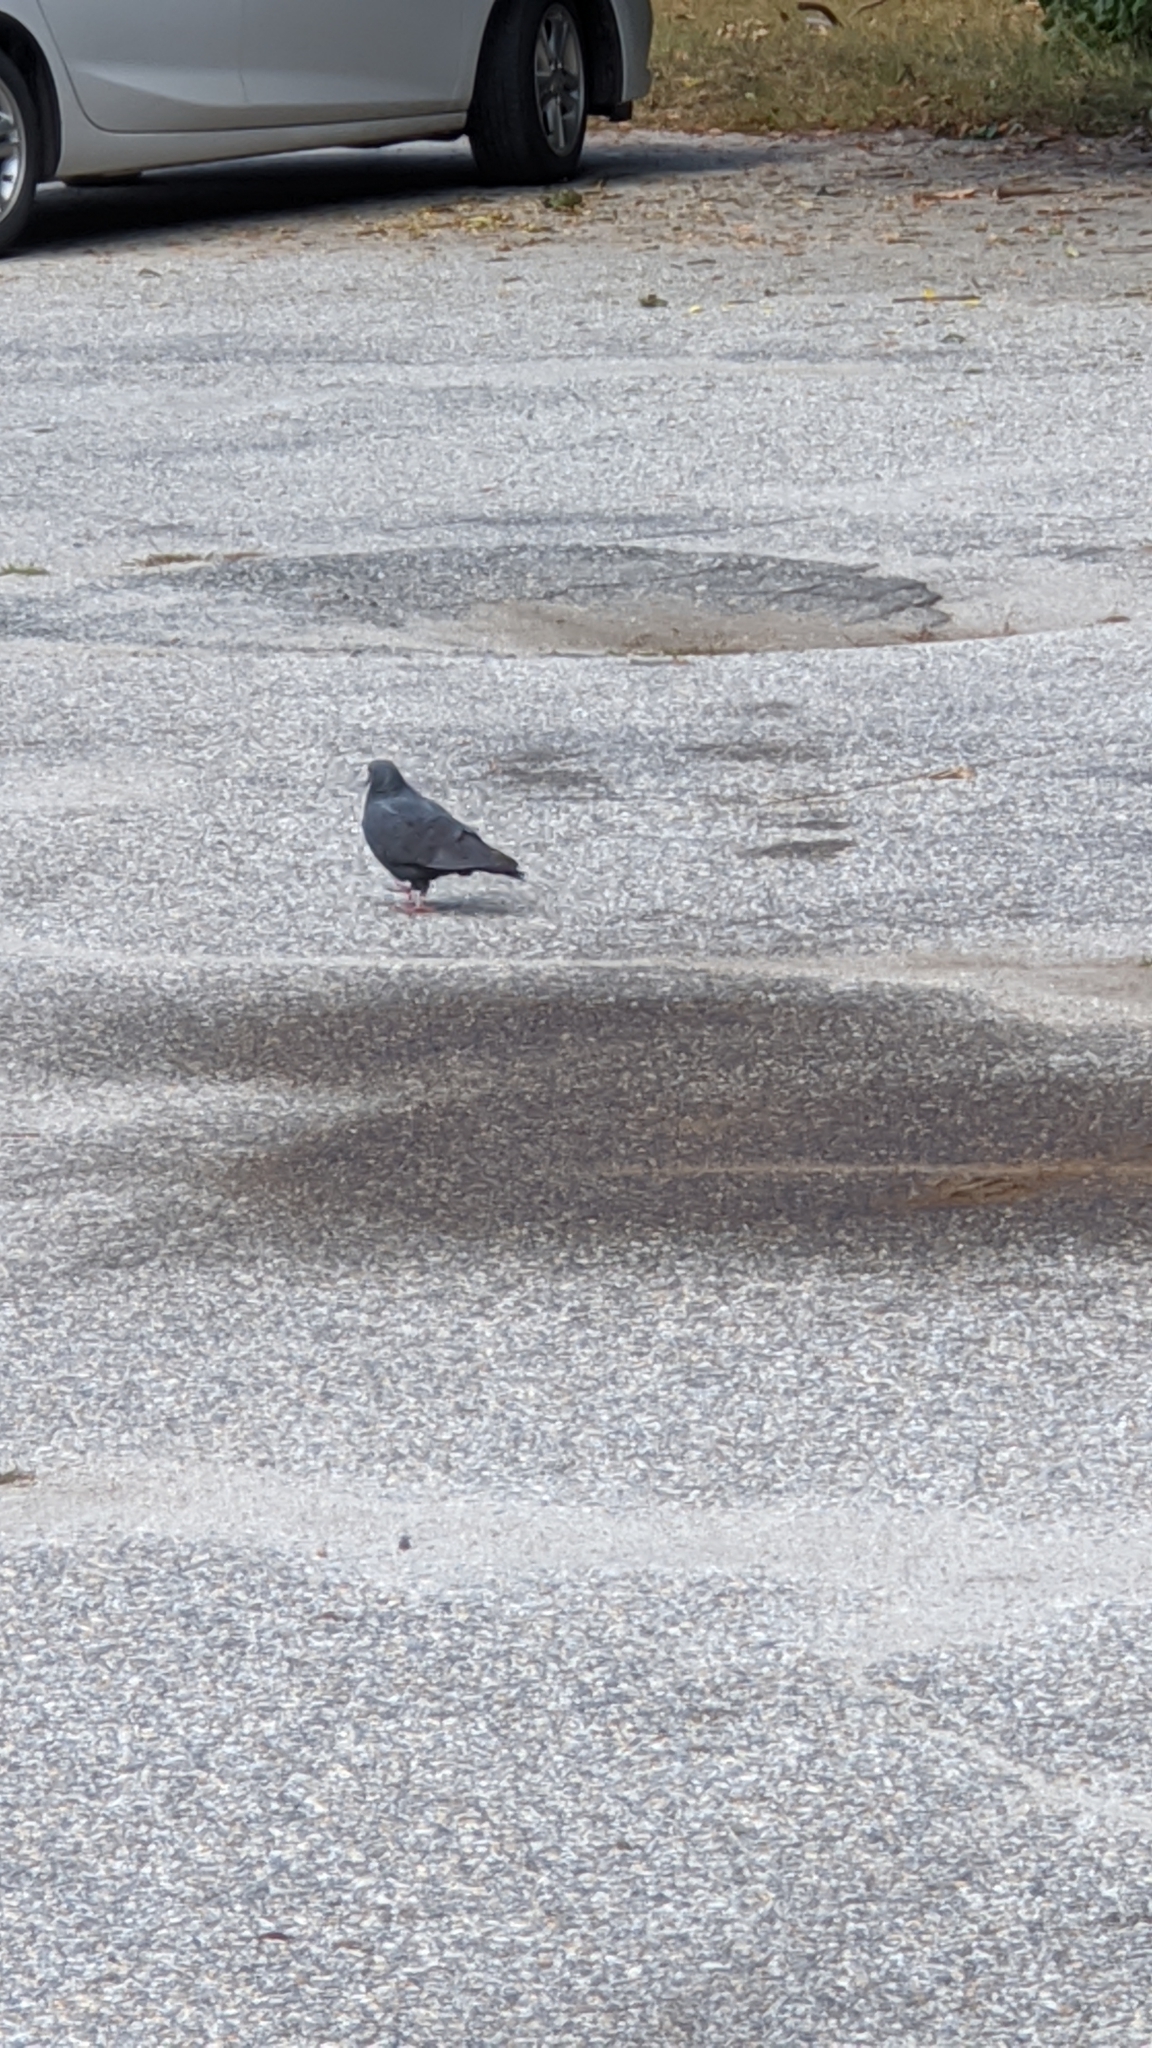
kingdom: Animalia
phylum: Chordata
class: Aves
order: Columbiformes
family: Columbidae
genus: Columba
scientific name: Columba livia
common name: Rock pigeon
